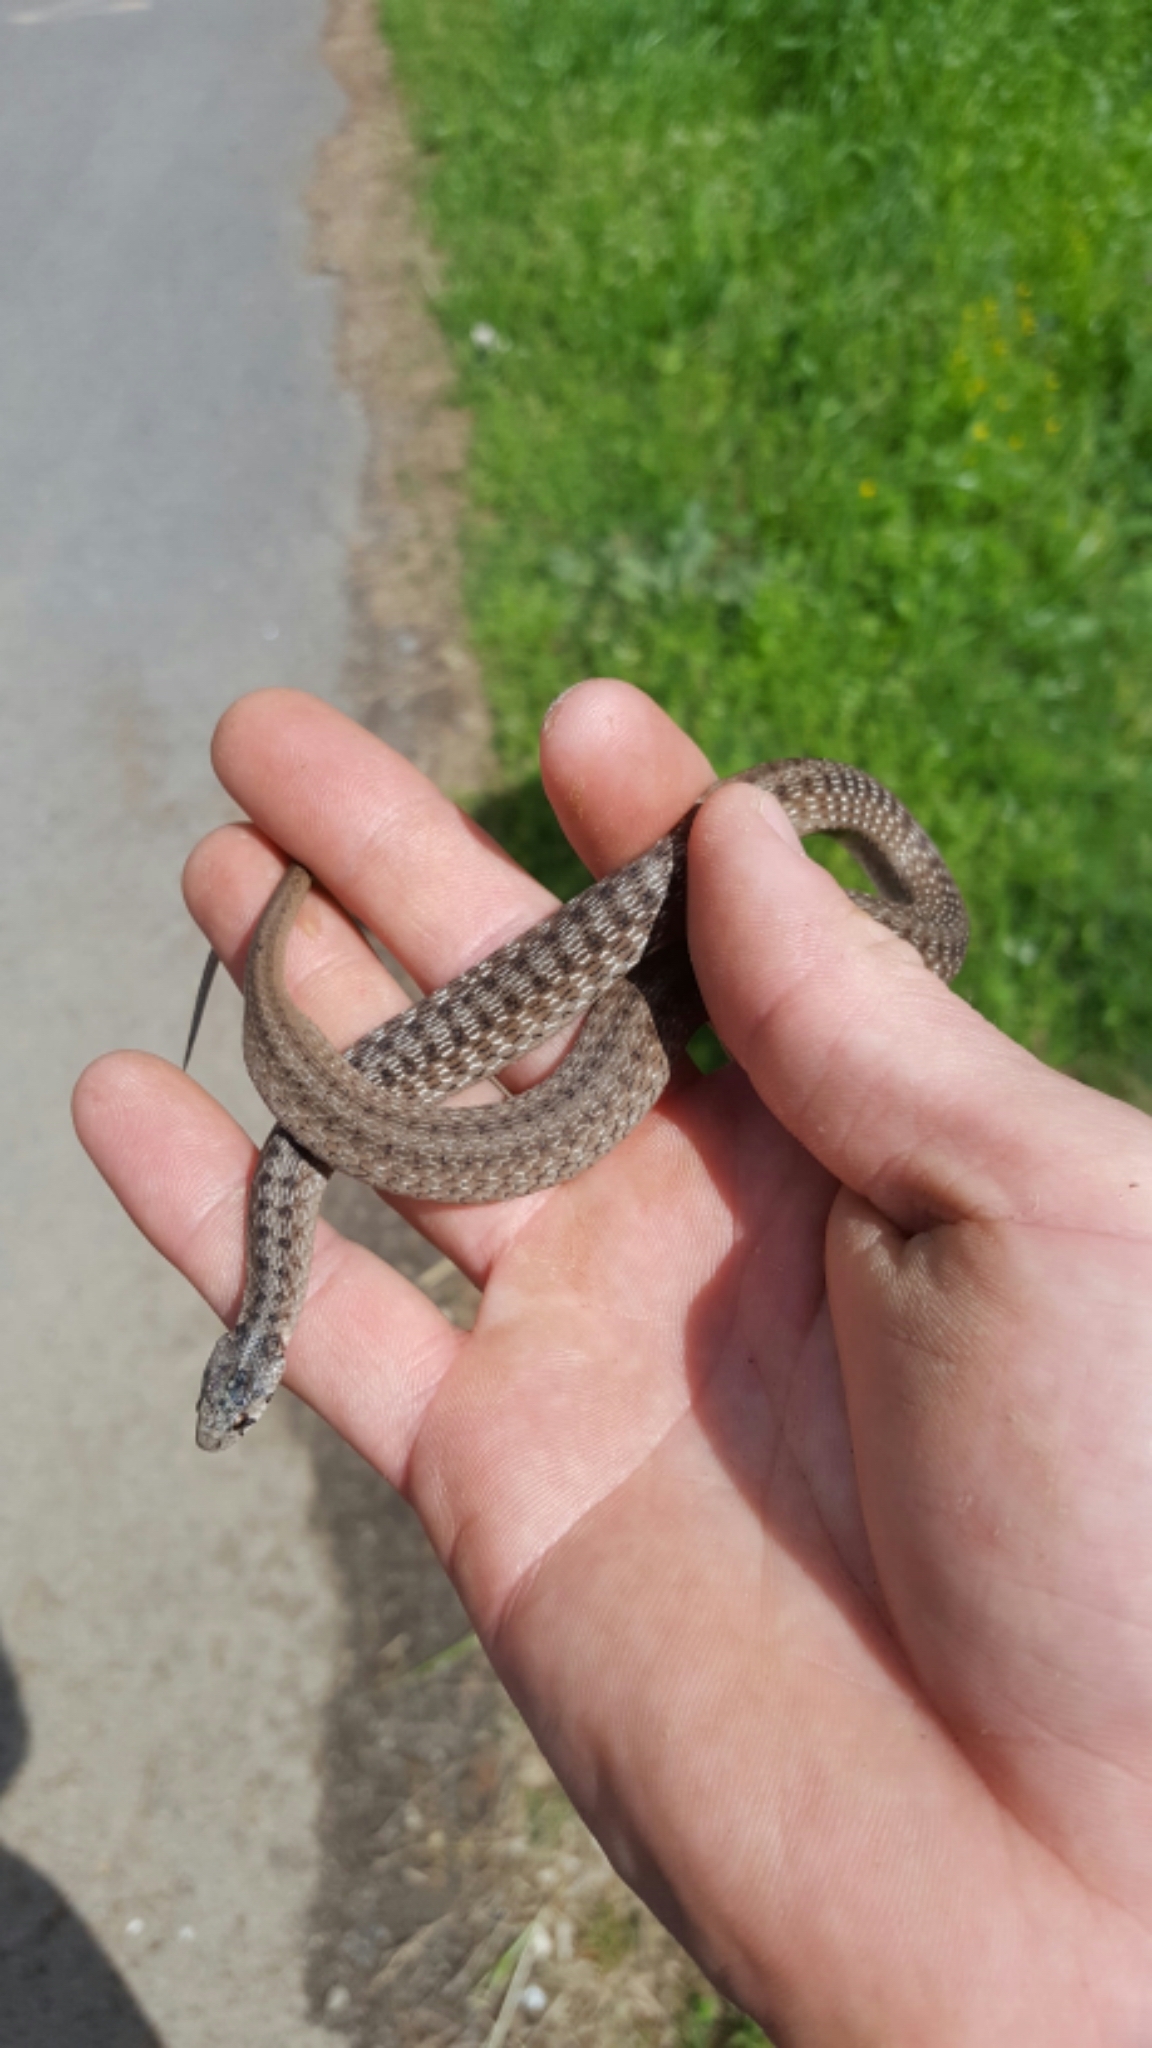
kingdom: Animalia
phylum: Chordata
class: Squamata
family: Colubridae
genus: Storeria
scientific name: Storeria dekayi
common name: (dekay’s) brown snake
